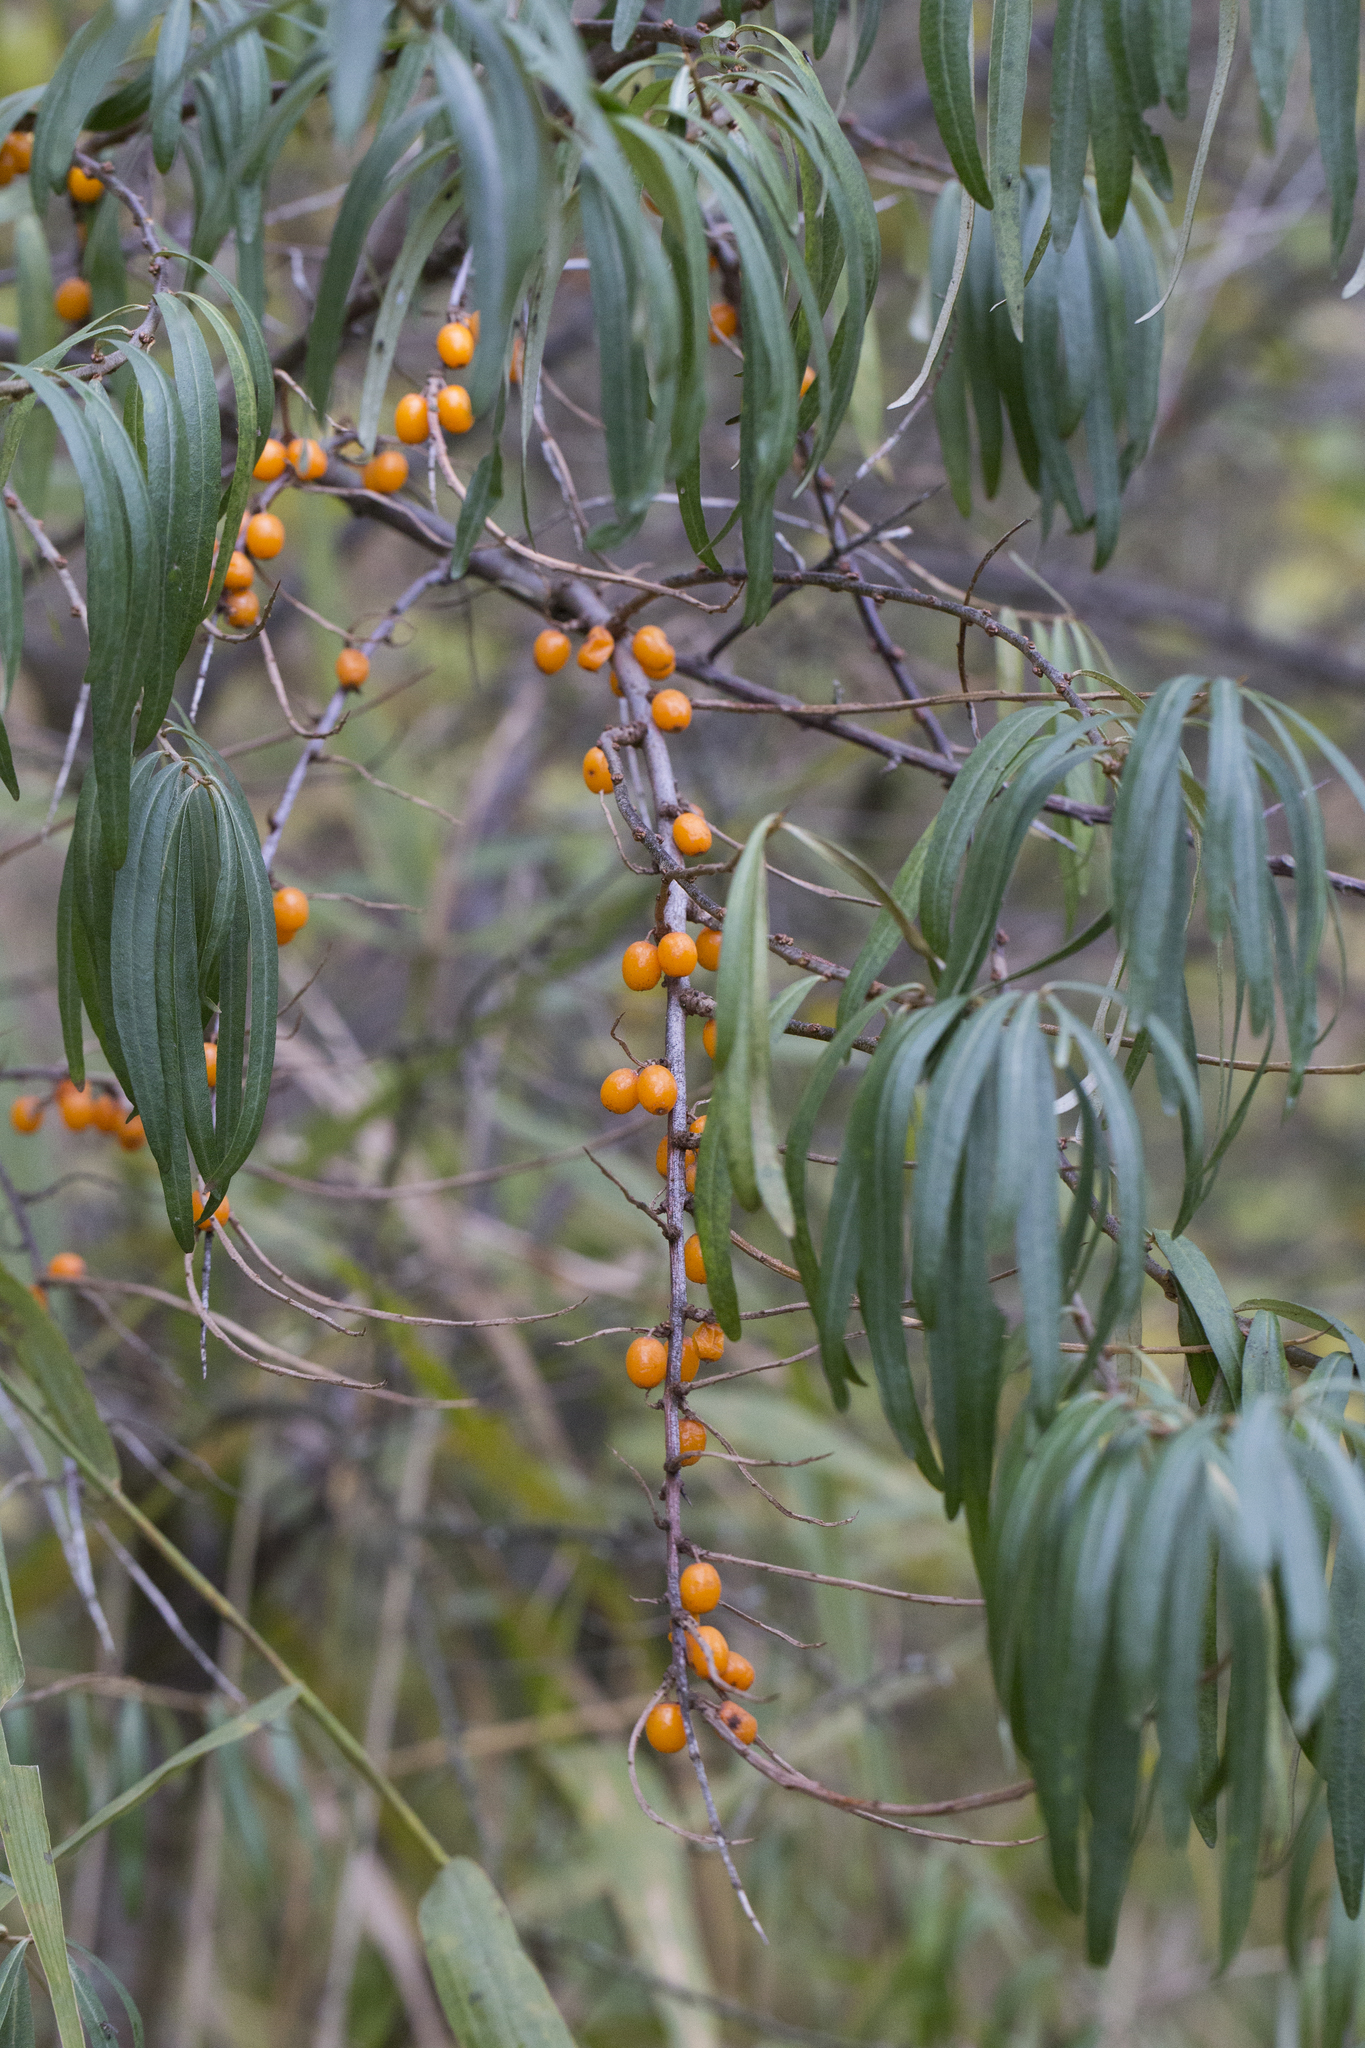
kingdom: Plantae
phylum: Tracheophyta
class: Magnoliopsida
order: Rosales
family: Elaeagnaceae
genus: Hippophae
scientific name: Hippophae rhamnoides
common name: Sea-buckthorn
